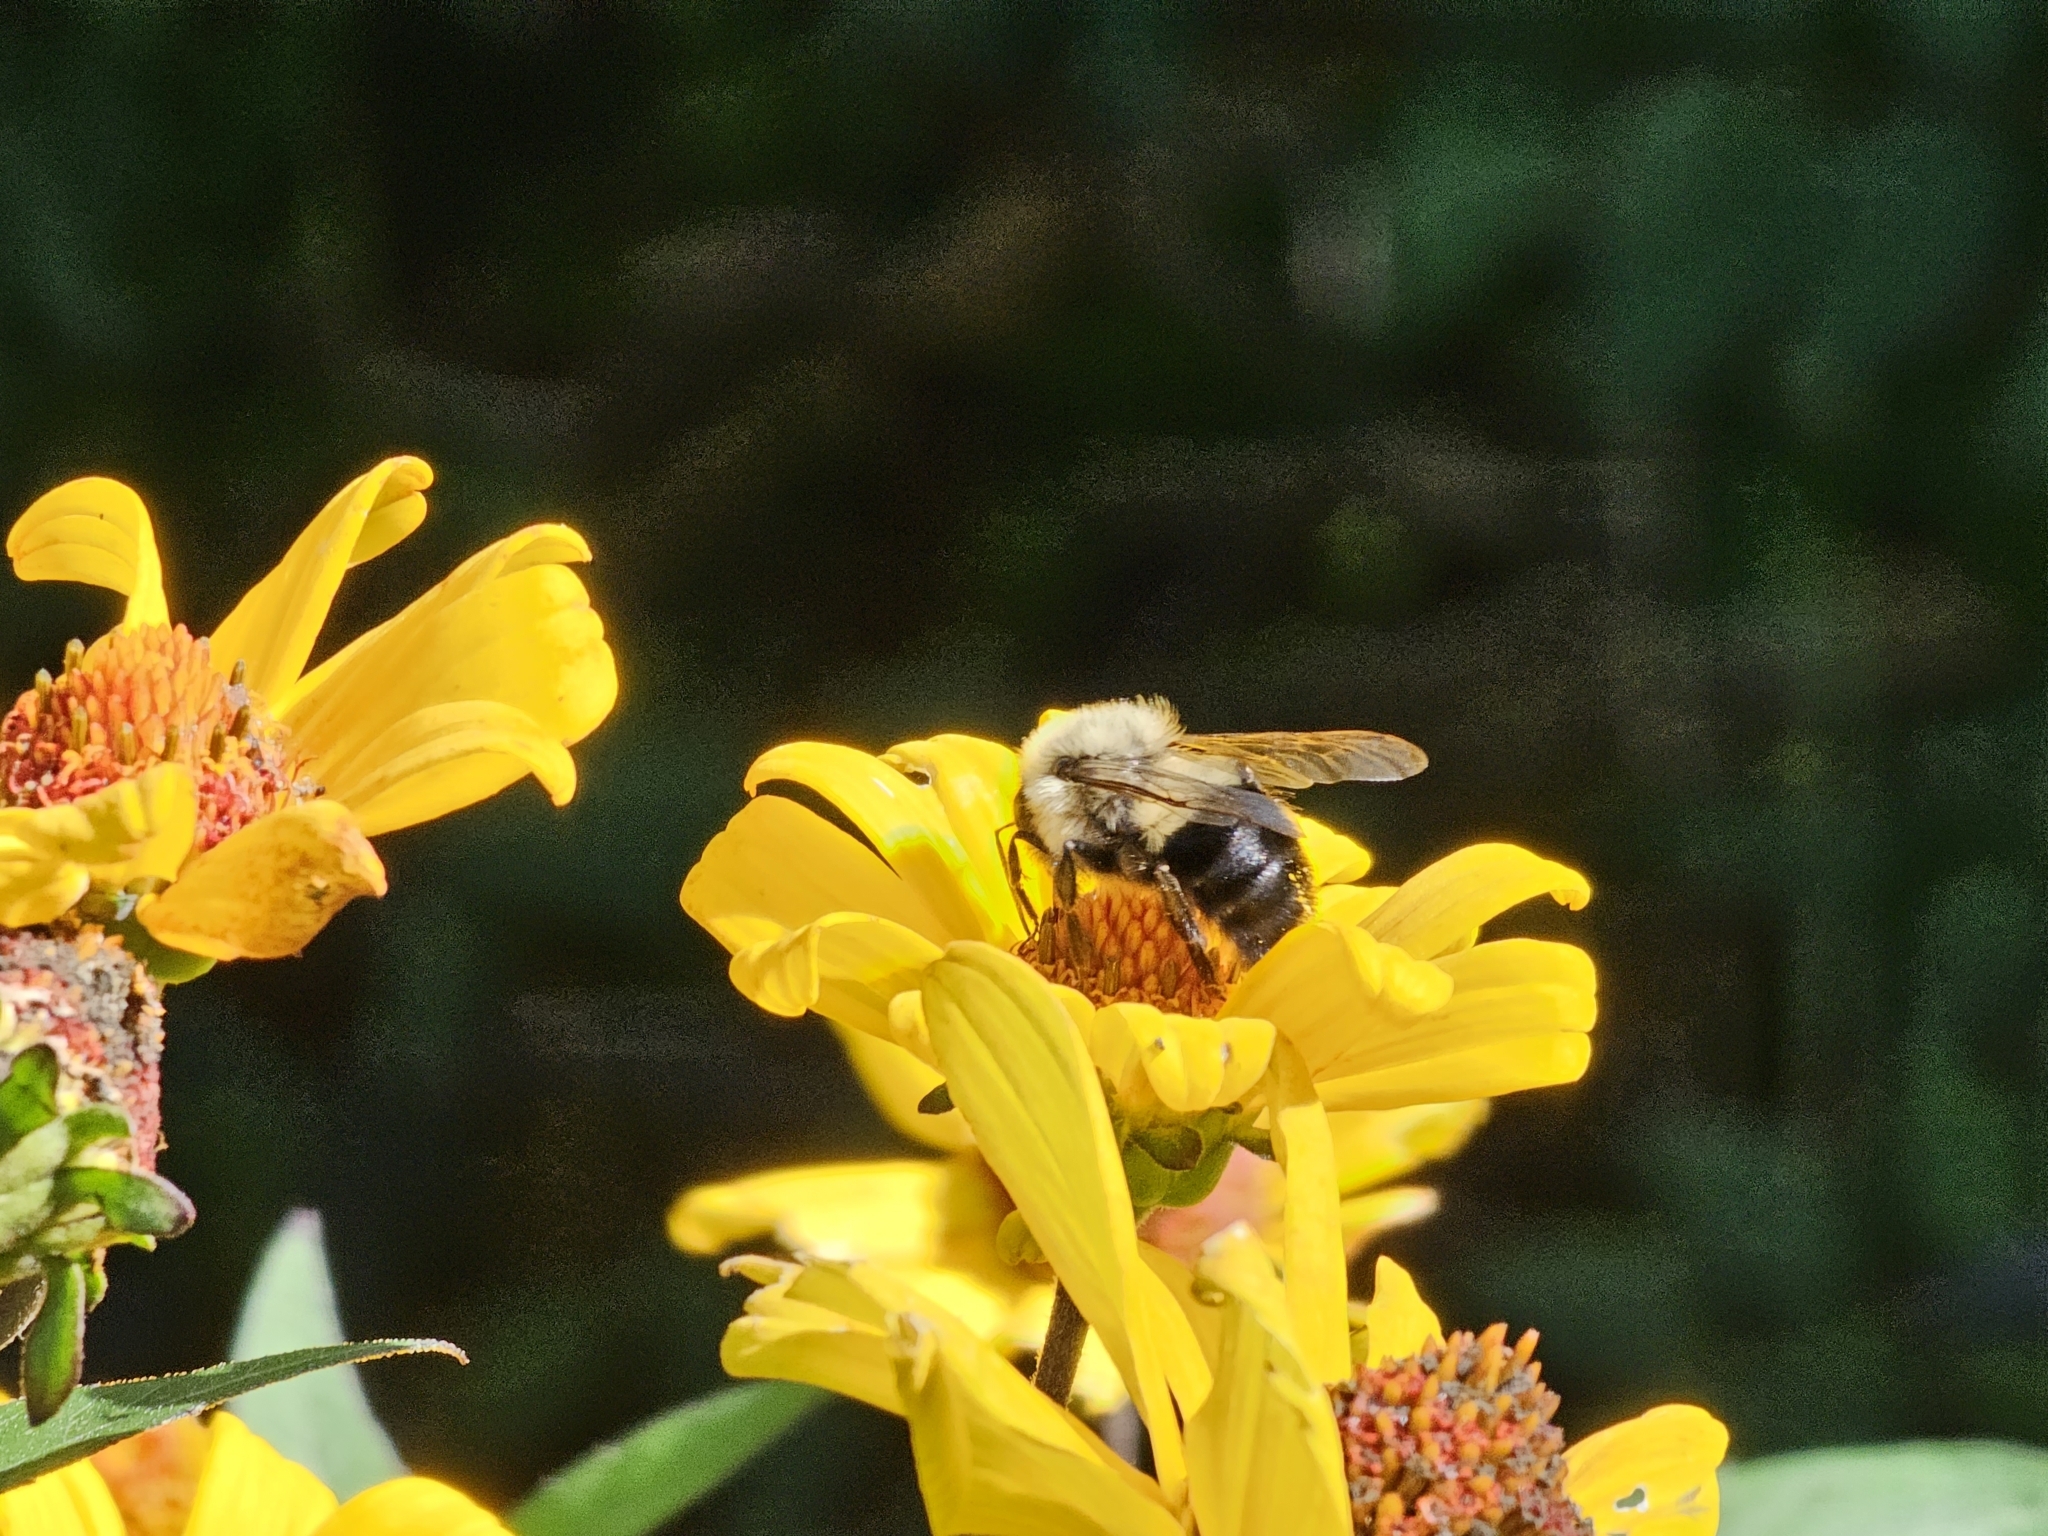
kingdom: Animalia
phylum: Arthropoda
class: Insecta
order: Hymenoptera
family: Apidae
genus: Bombus
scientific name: Bombus impatiens
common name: Common eastern bumble bee
